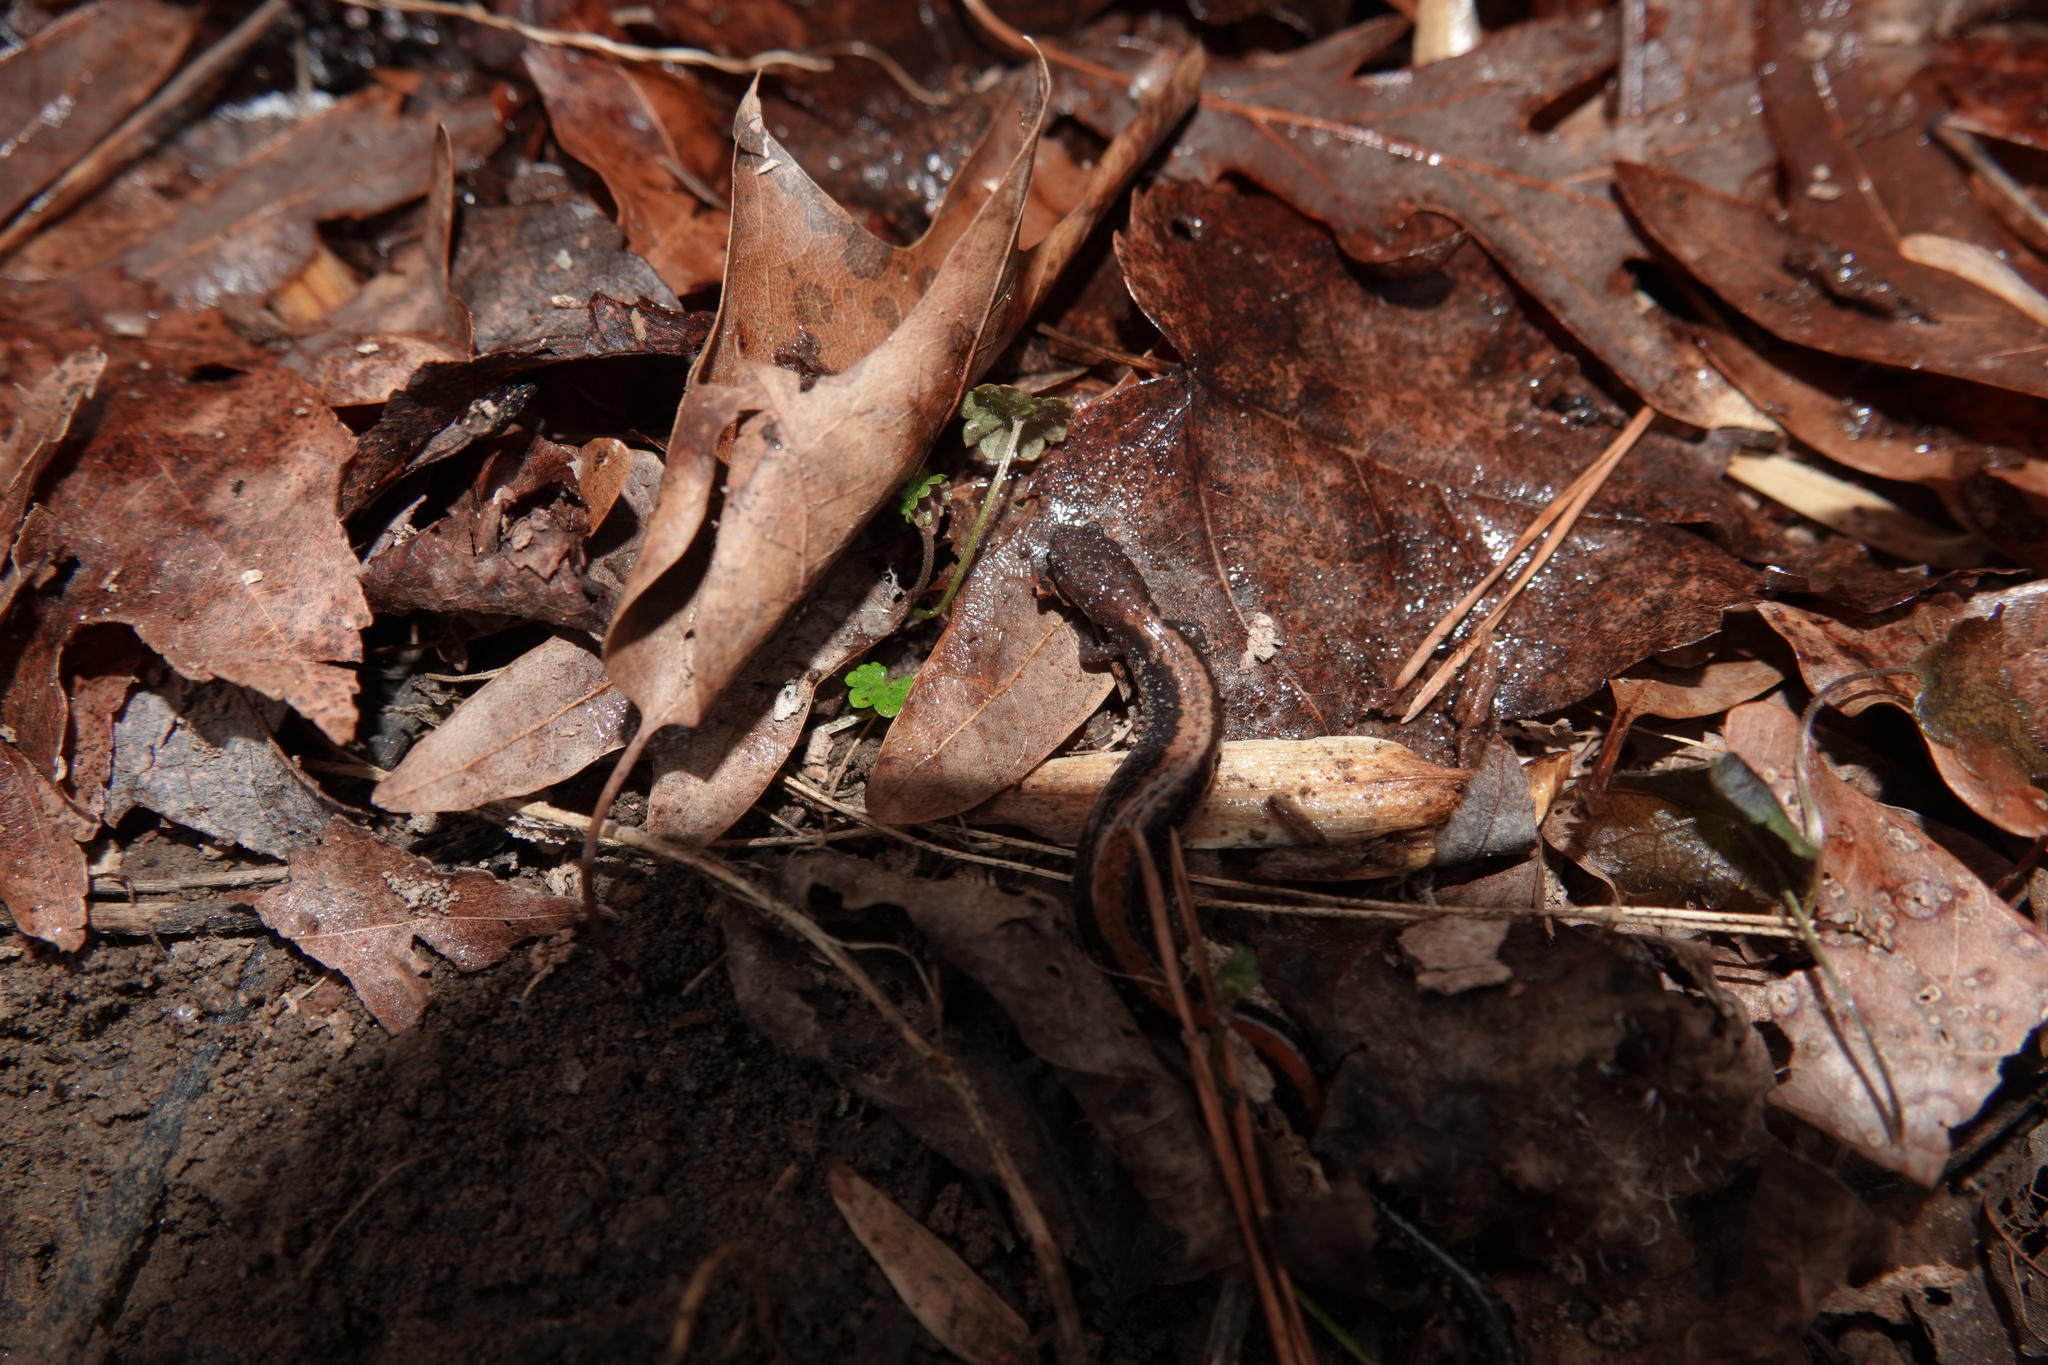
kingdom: Animalia
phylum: Chordata
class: Amphibia
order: Caudata
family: Plethodontidae
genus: Plethodon
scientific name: Plethodon cinereus
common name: Redback salamander
